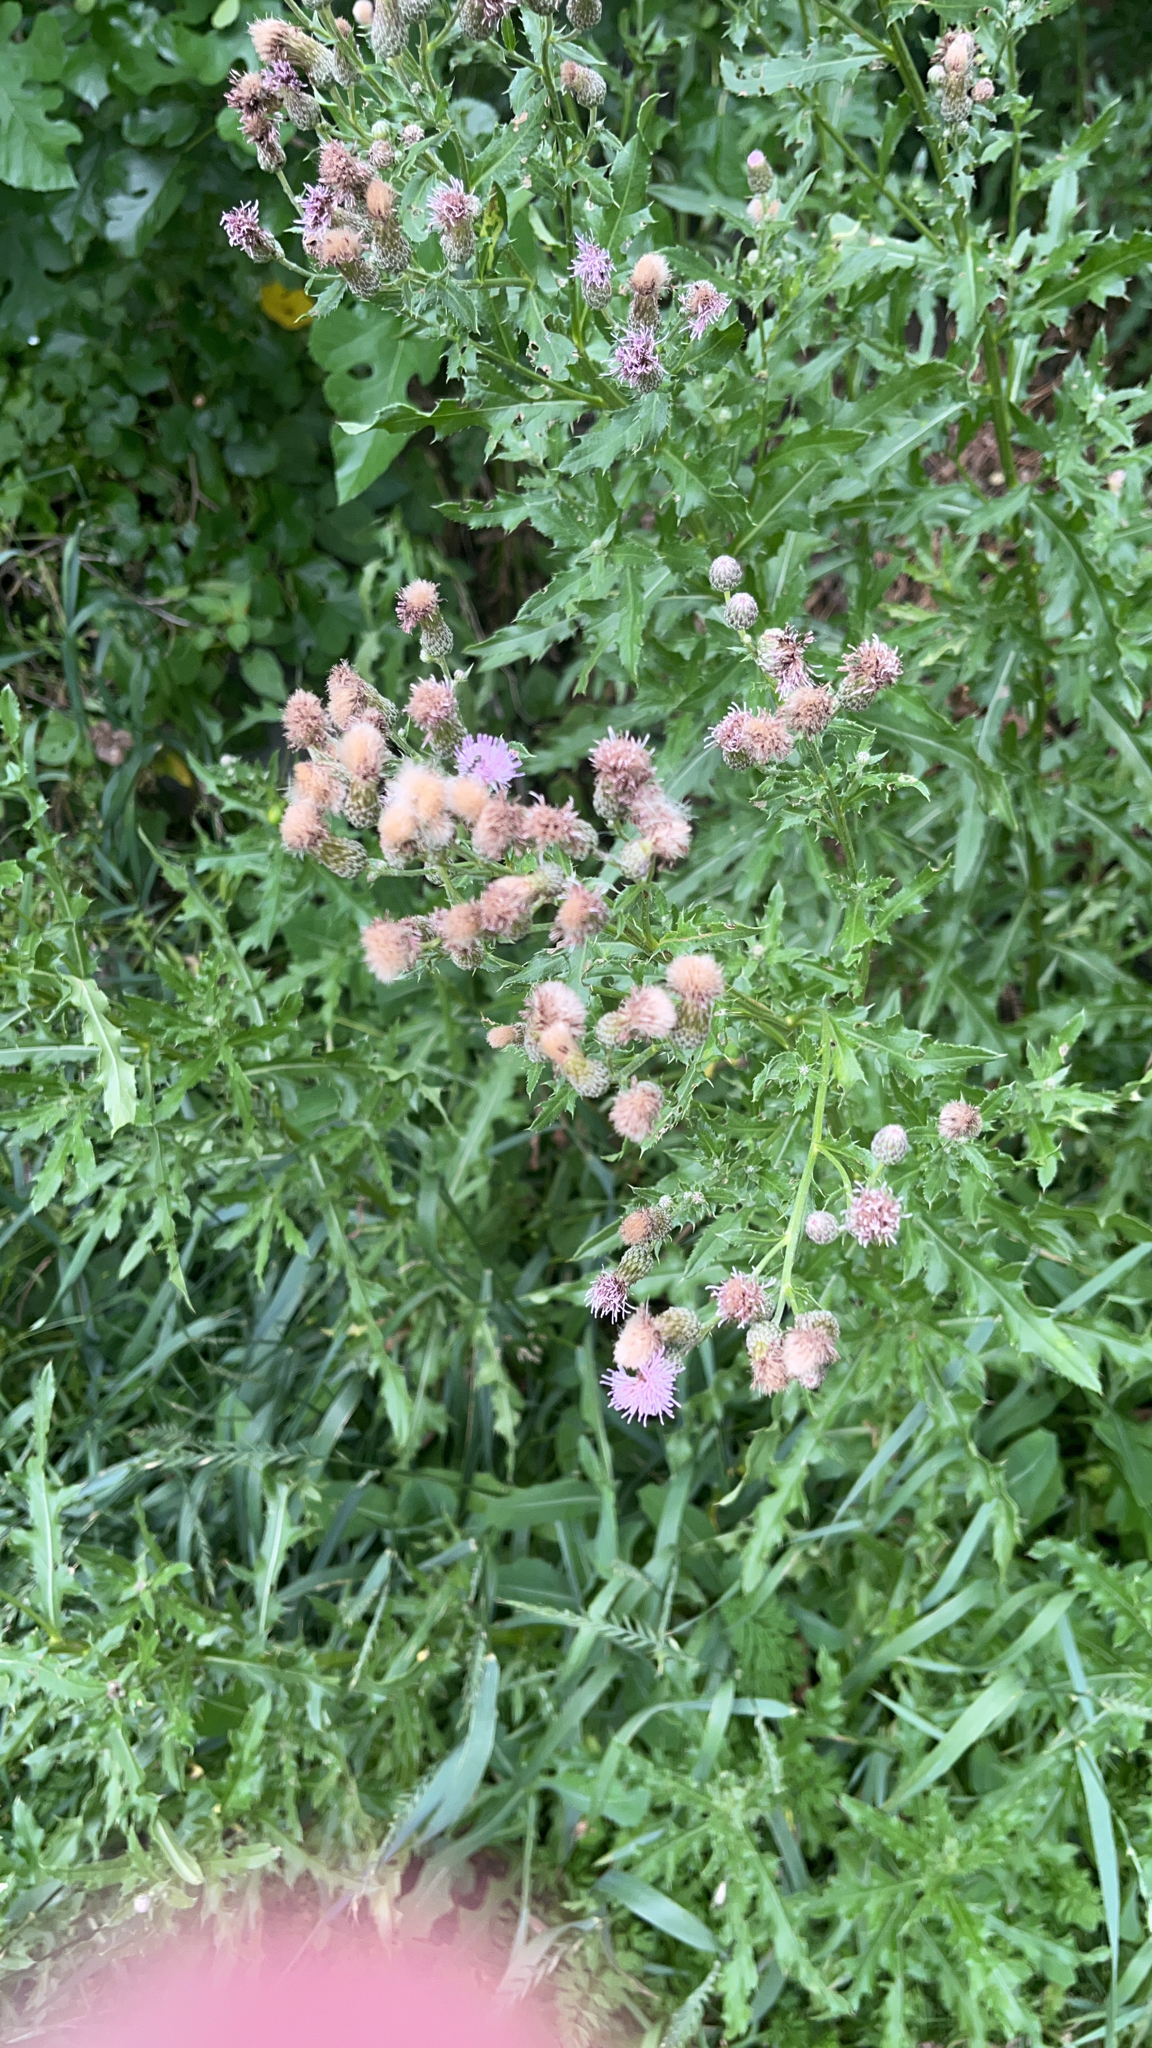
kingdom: Plantae
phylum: Tracheophyta
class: Magnoliopsida
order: Asterales
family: Asteraceae
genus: Cirsium
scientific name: Cirsium arvense
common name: Creeping thistle
